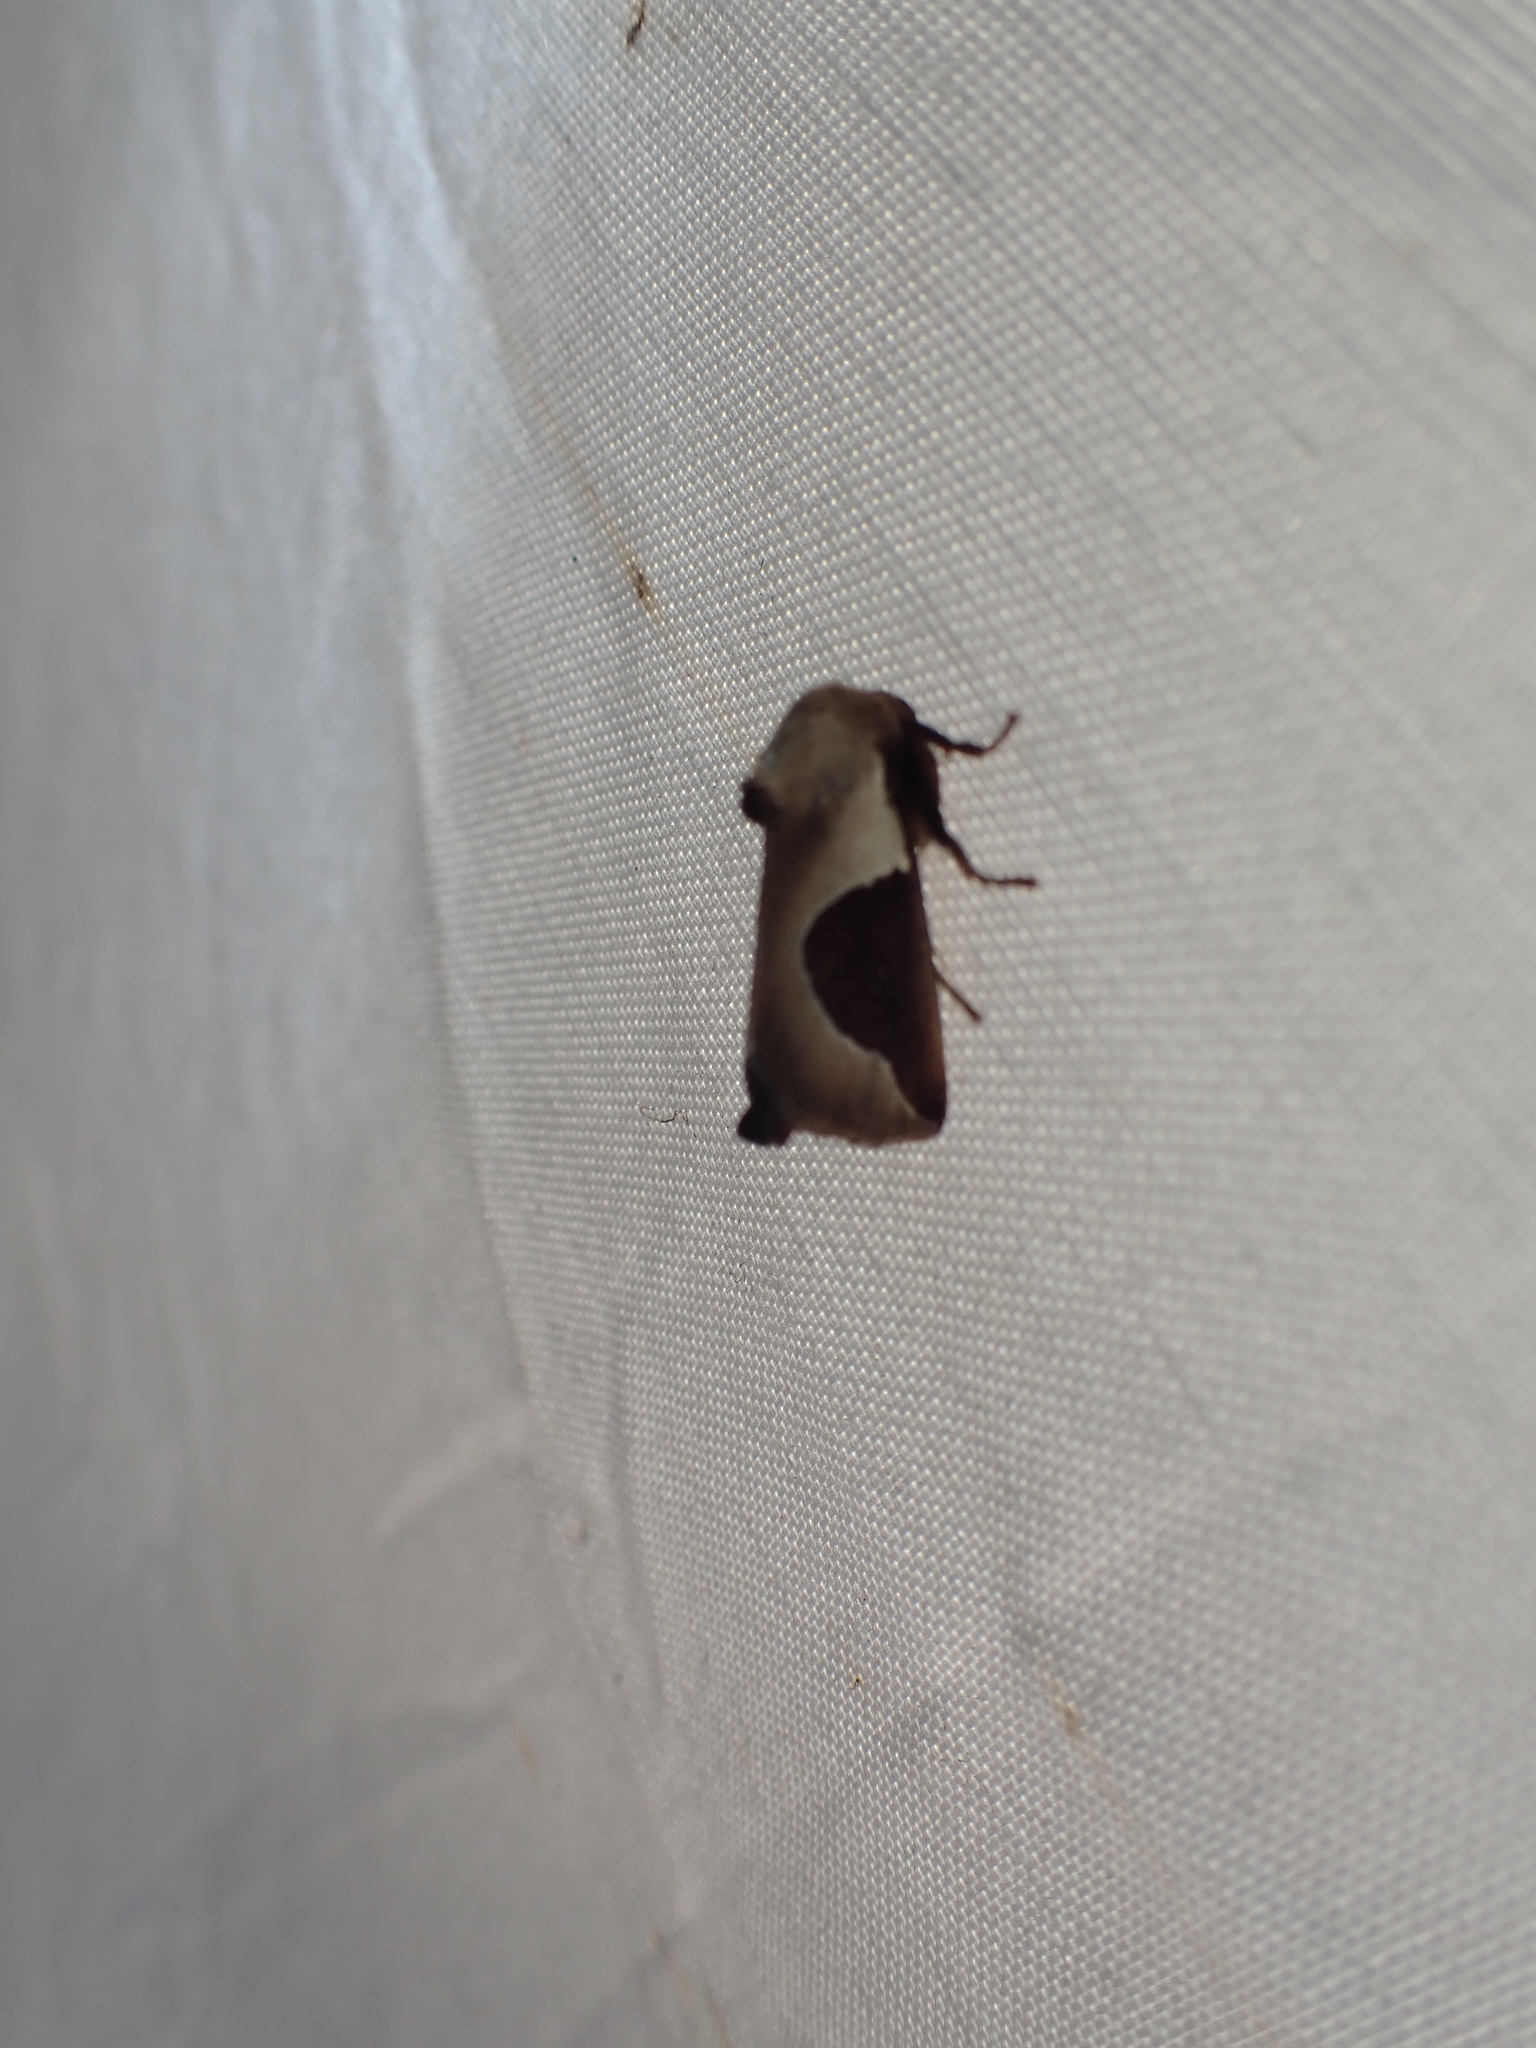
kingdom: Animalia
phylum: Arthropoda
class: Insecta
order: Lepidoptera
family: Limacodidae
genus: Prolimacodes
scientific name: Prolimacodes badia
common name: Skiff moth
